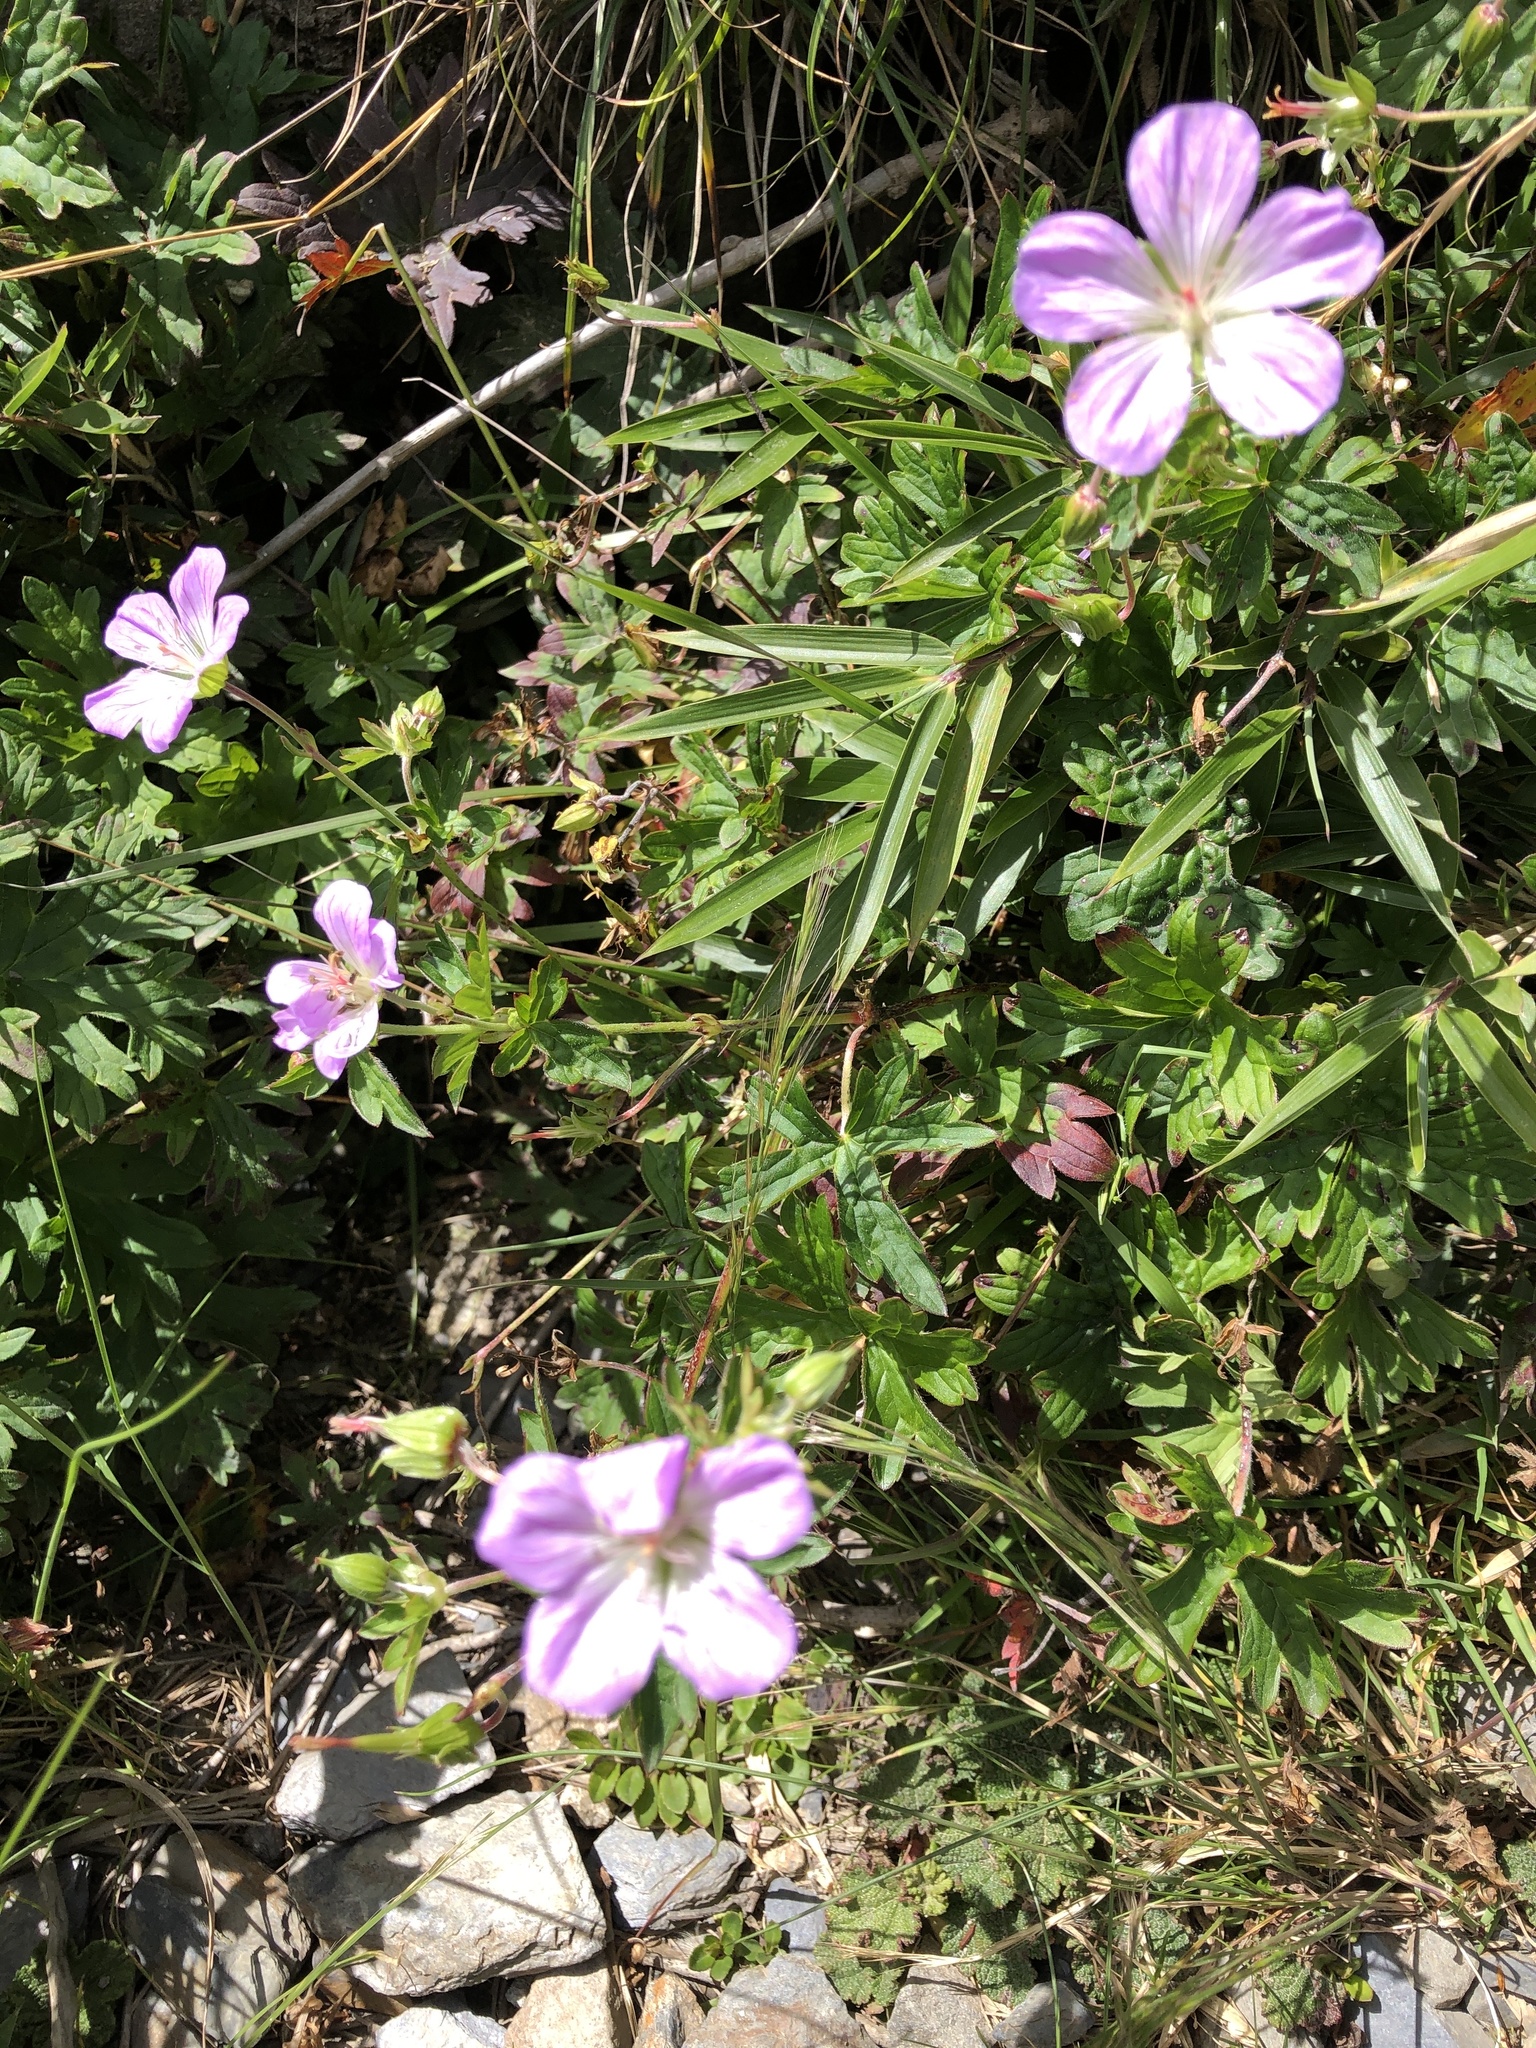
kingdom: Plantae
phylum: Tracheophyta
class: Magnoliopsida
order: Geraniales
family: Geraniaceae
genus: Geranium
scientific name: Geranium hayatanum
